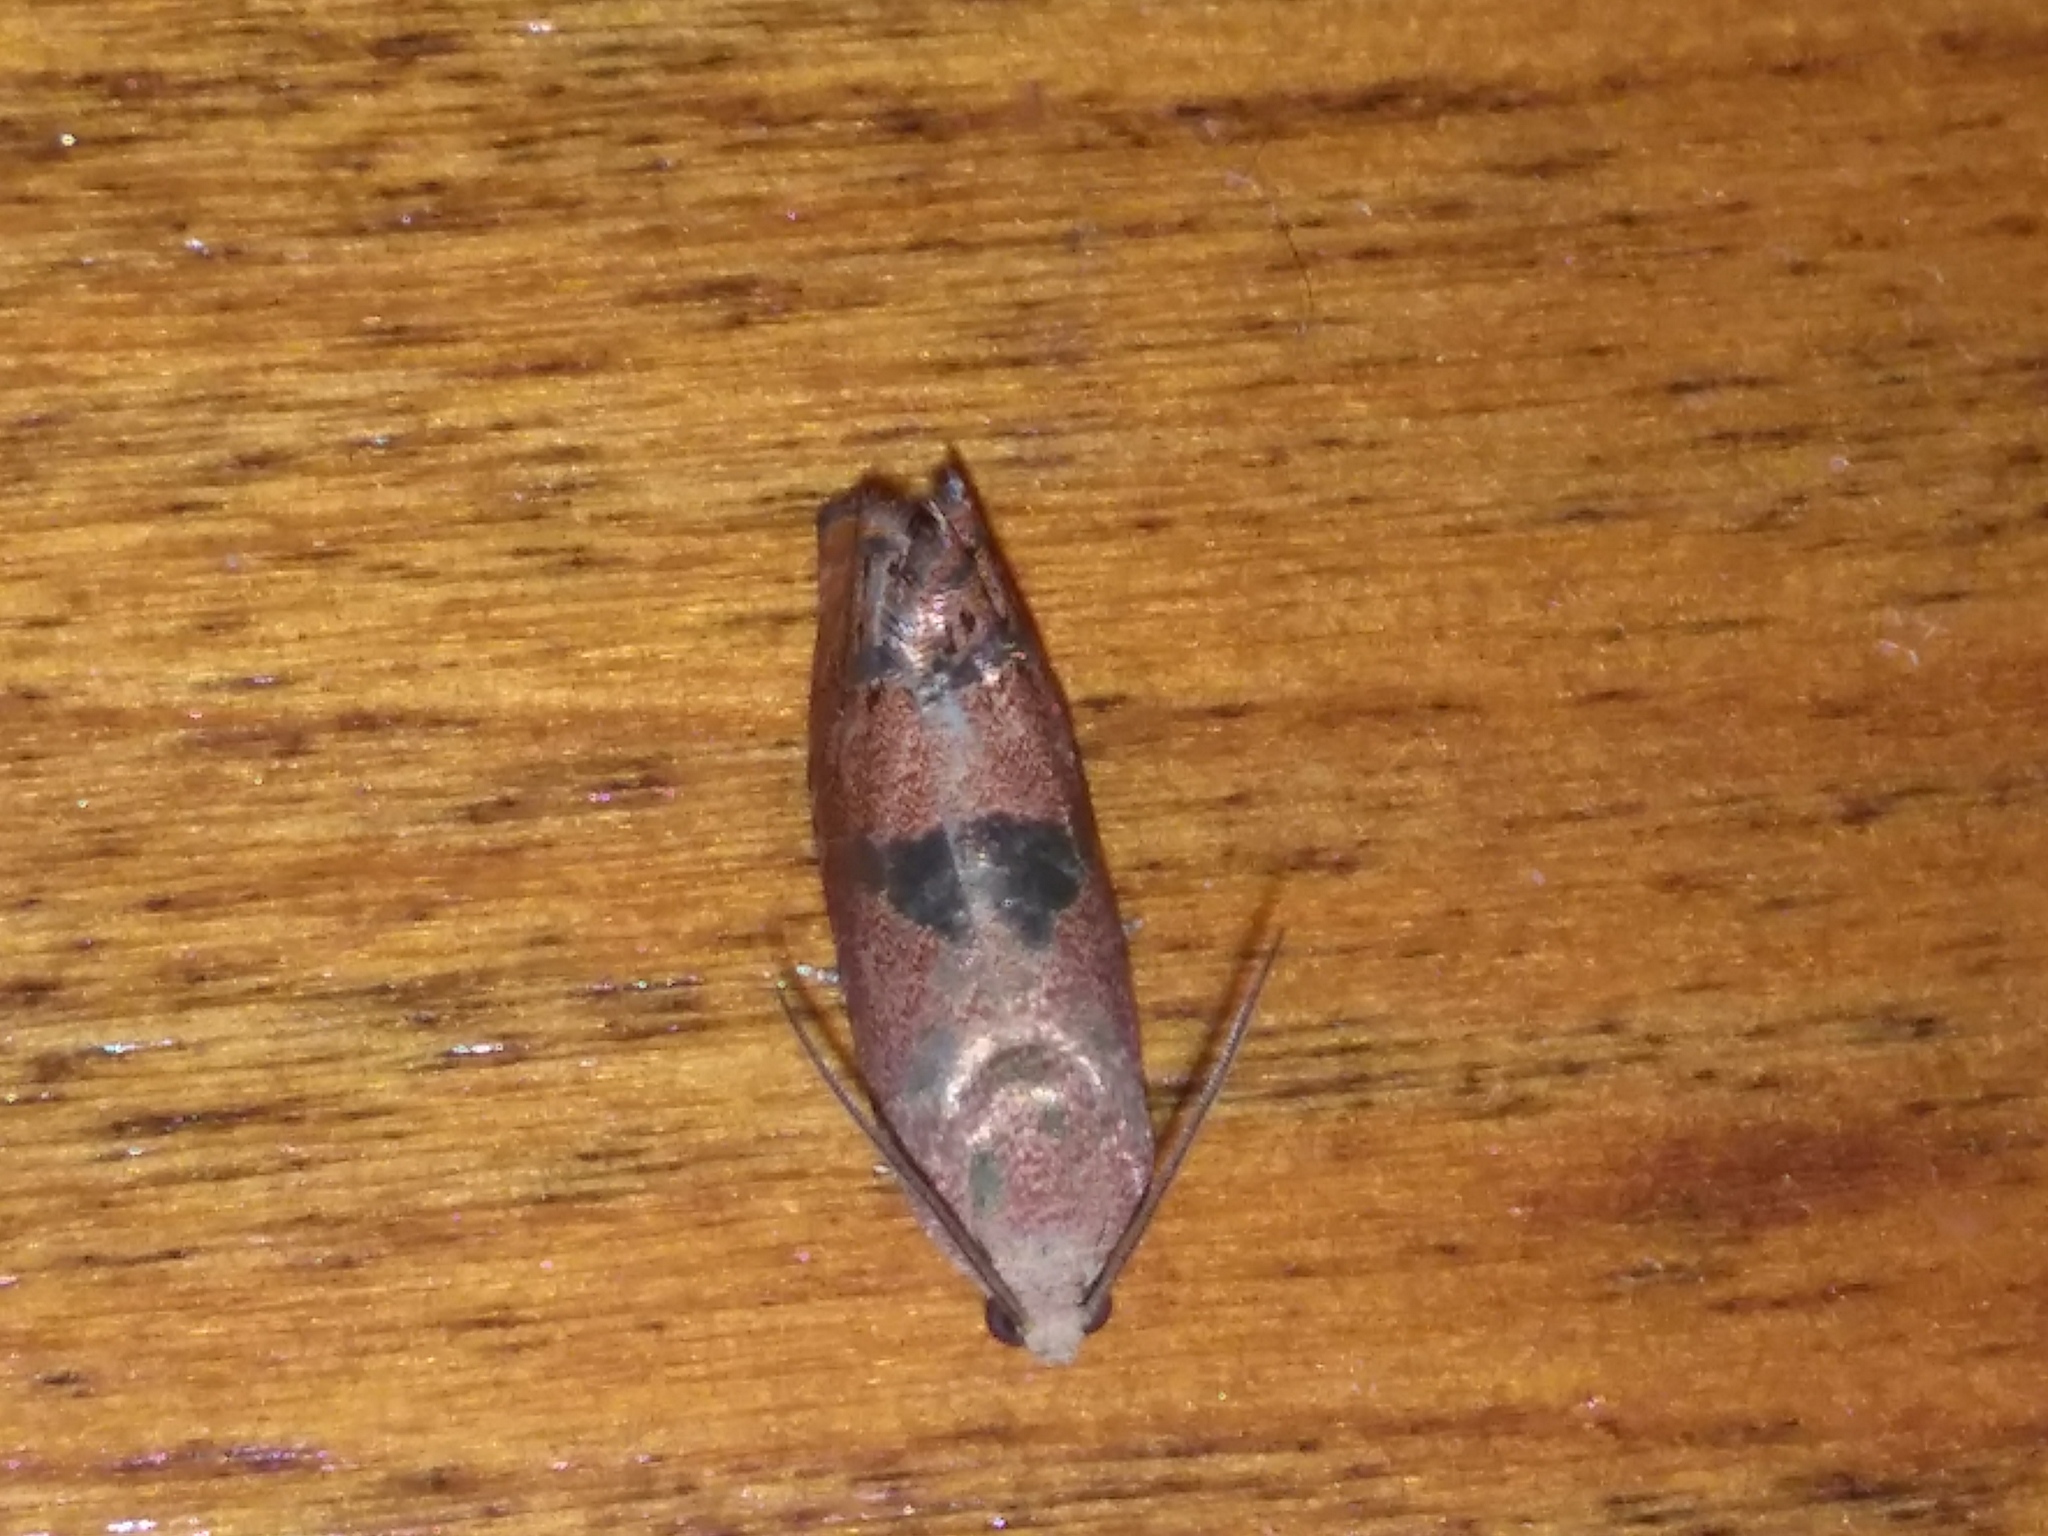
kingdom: Animalia
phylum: Arthropoda
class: Insecta
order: Lepidoptera
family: Tortricidae
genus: Cydia
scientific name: Cydia latiferreana
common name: Filbertworm moth
